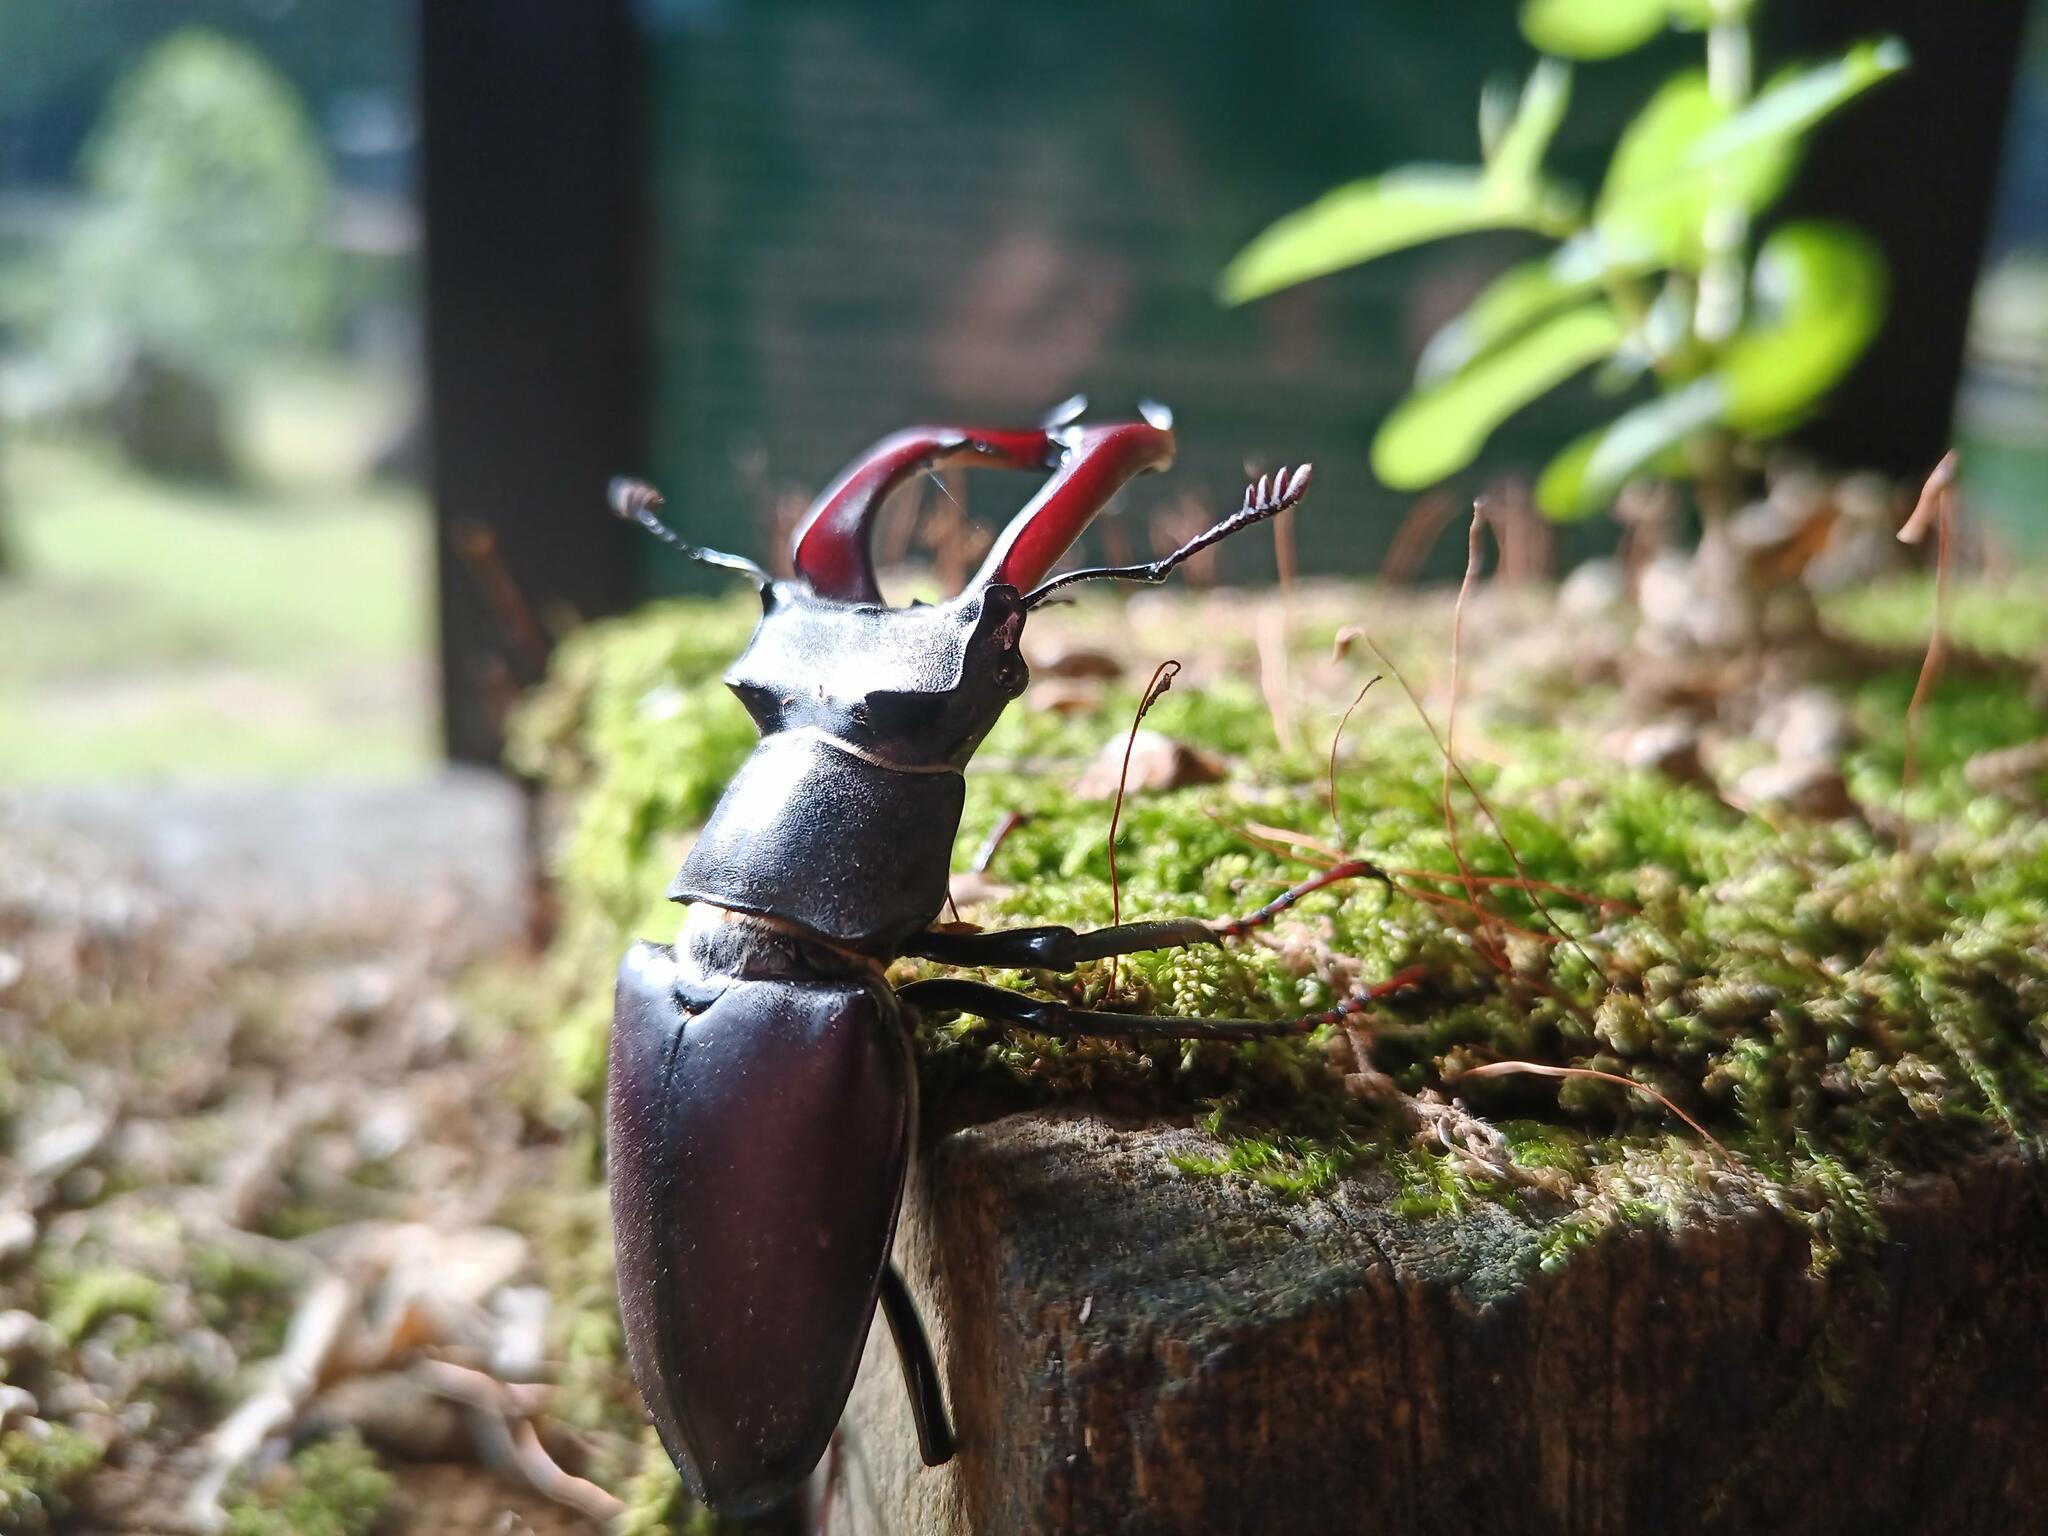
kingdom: Animalia
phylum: Arthropoda
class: Insecta
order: Coleoptera
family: Lucanidae
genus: Lucanus
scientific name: Lucanus cervus
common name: Stag beetle
